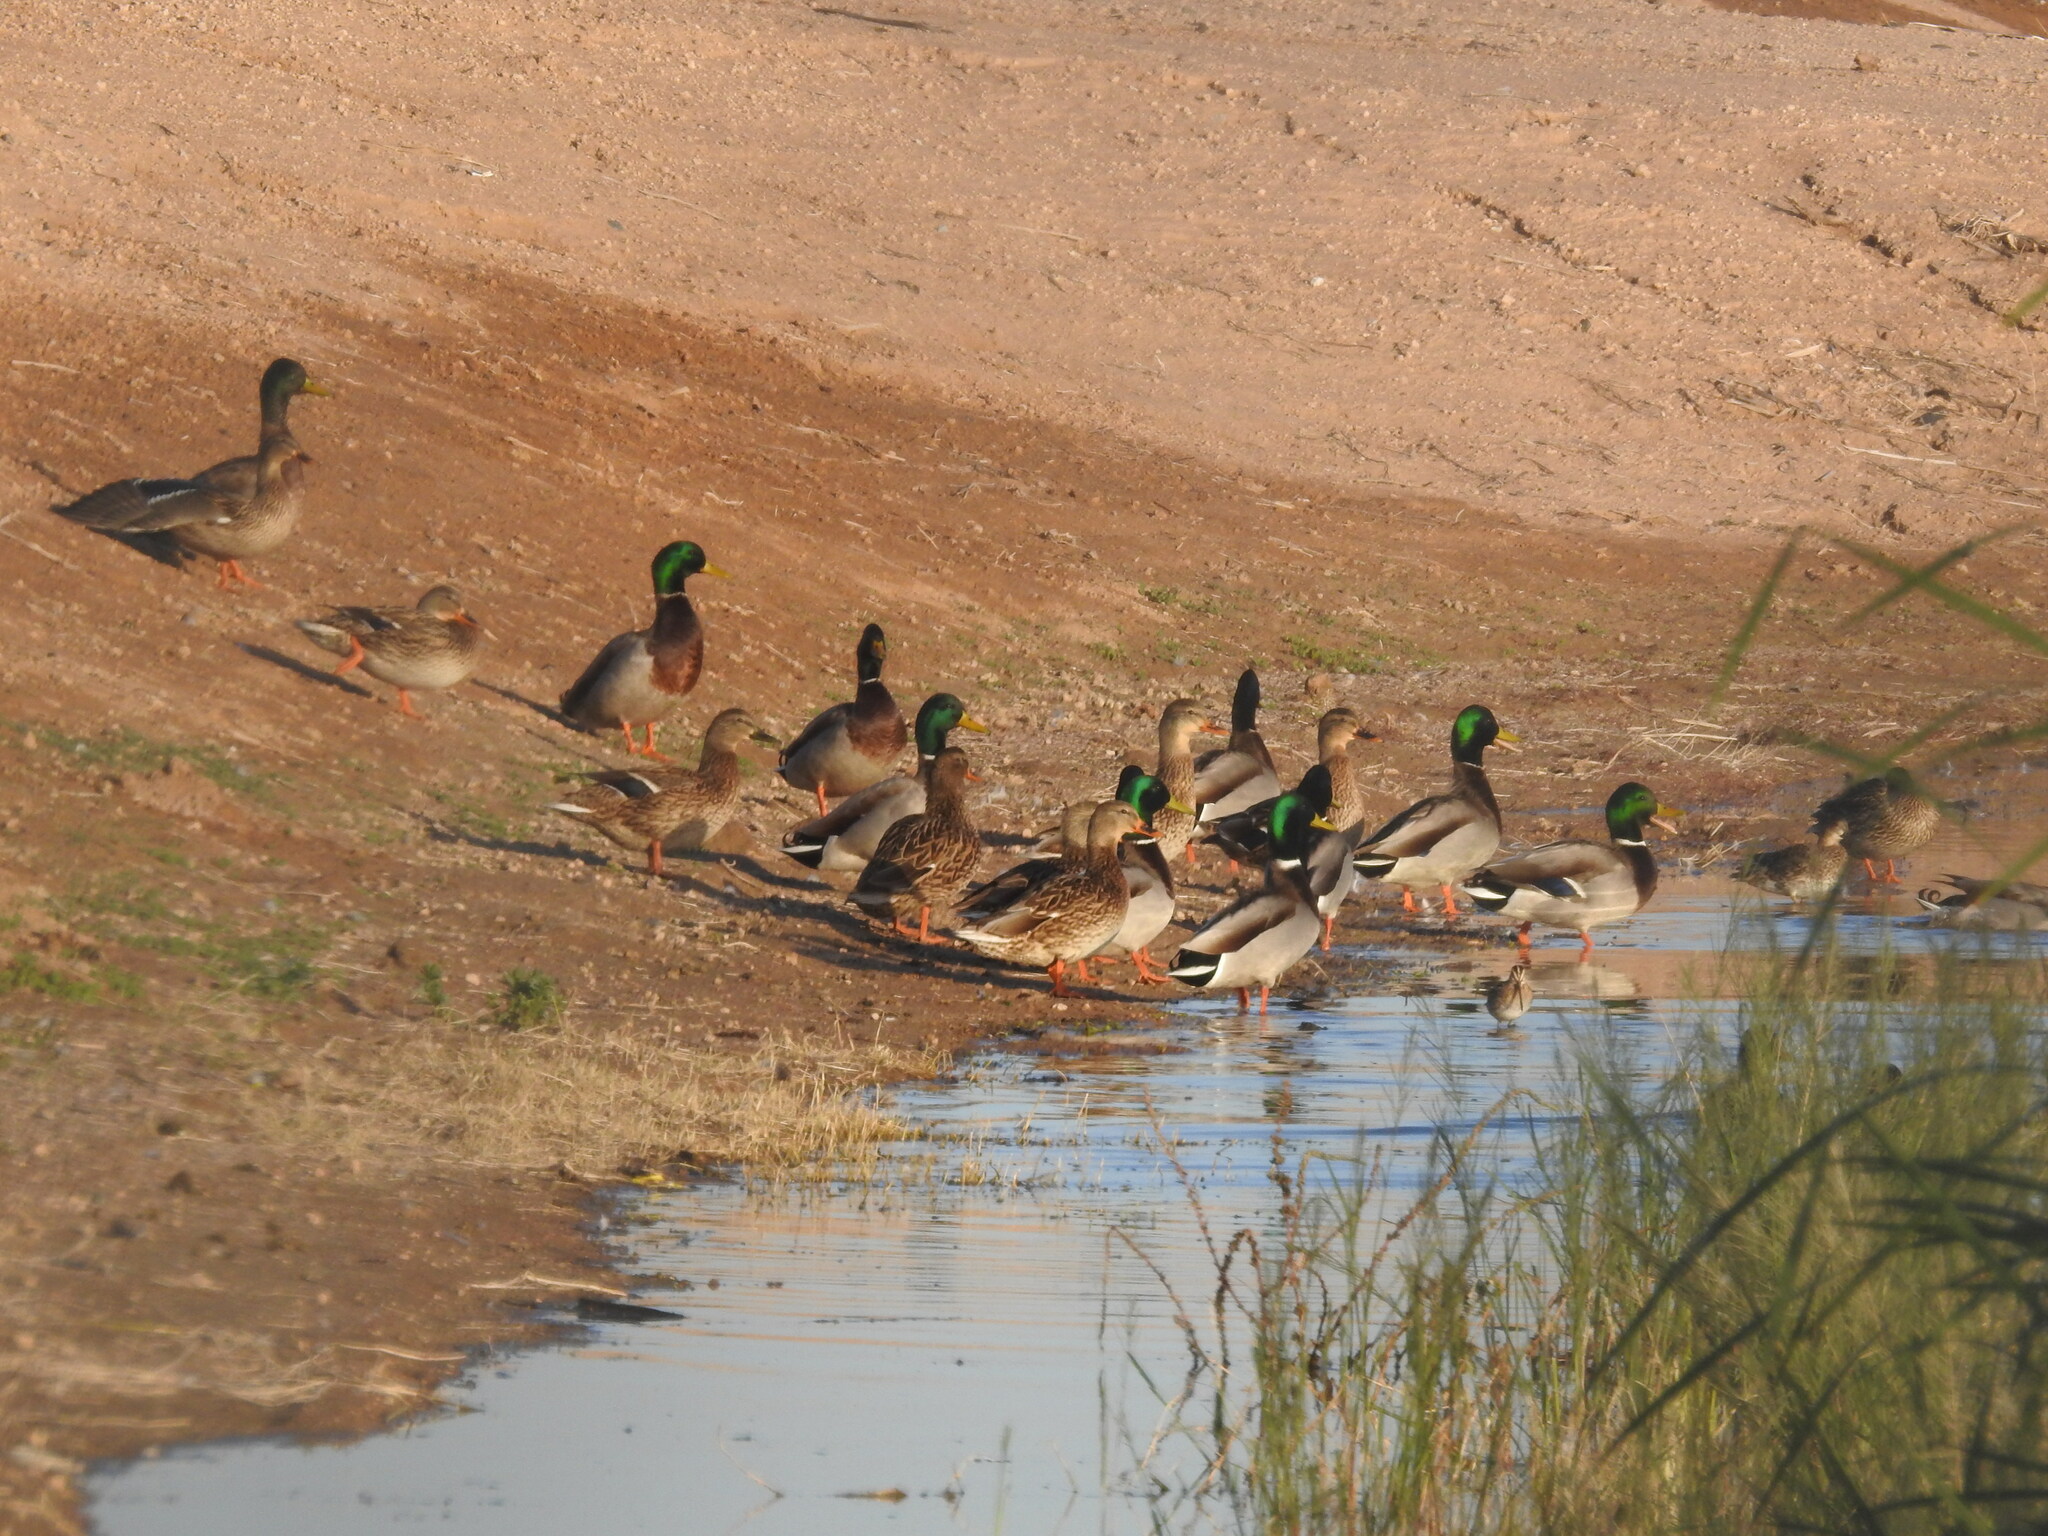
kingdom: Animalia
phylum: Chordata
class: Aves
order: Anseriformes
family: Anatidae
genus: Anas
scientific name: Anas platyrhynchos
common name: Mallard
